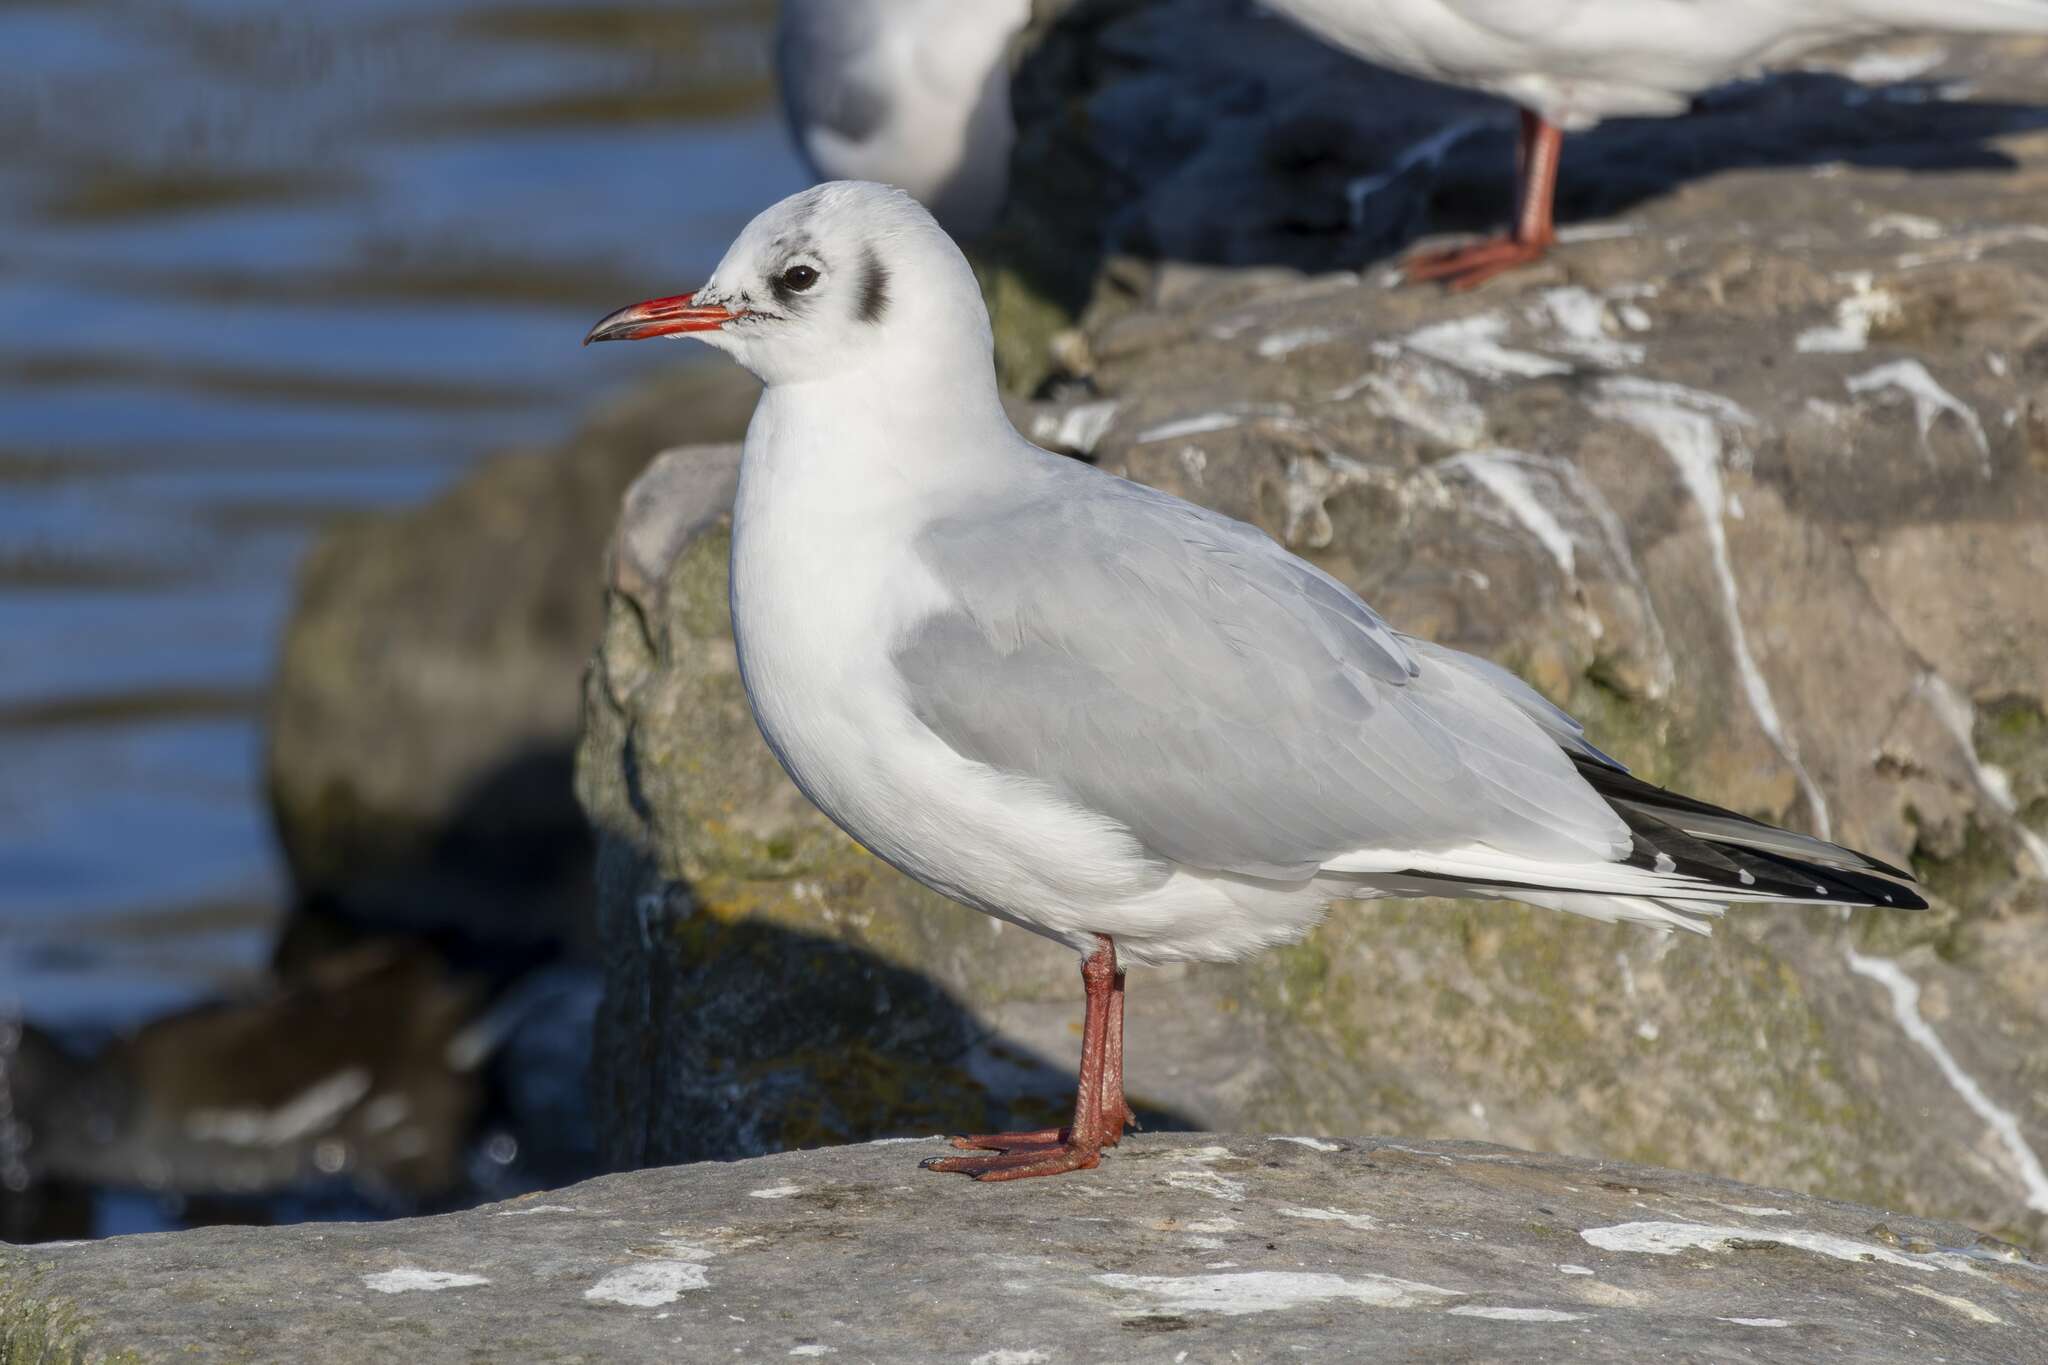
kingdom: Animalia
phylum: Chordata
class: Aves
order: Charadriiformes
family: Laridae
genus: Chroicocephalus
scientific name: Chroicocephalus ridibundus
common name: Black-headed gull
